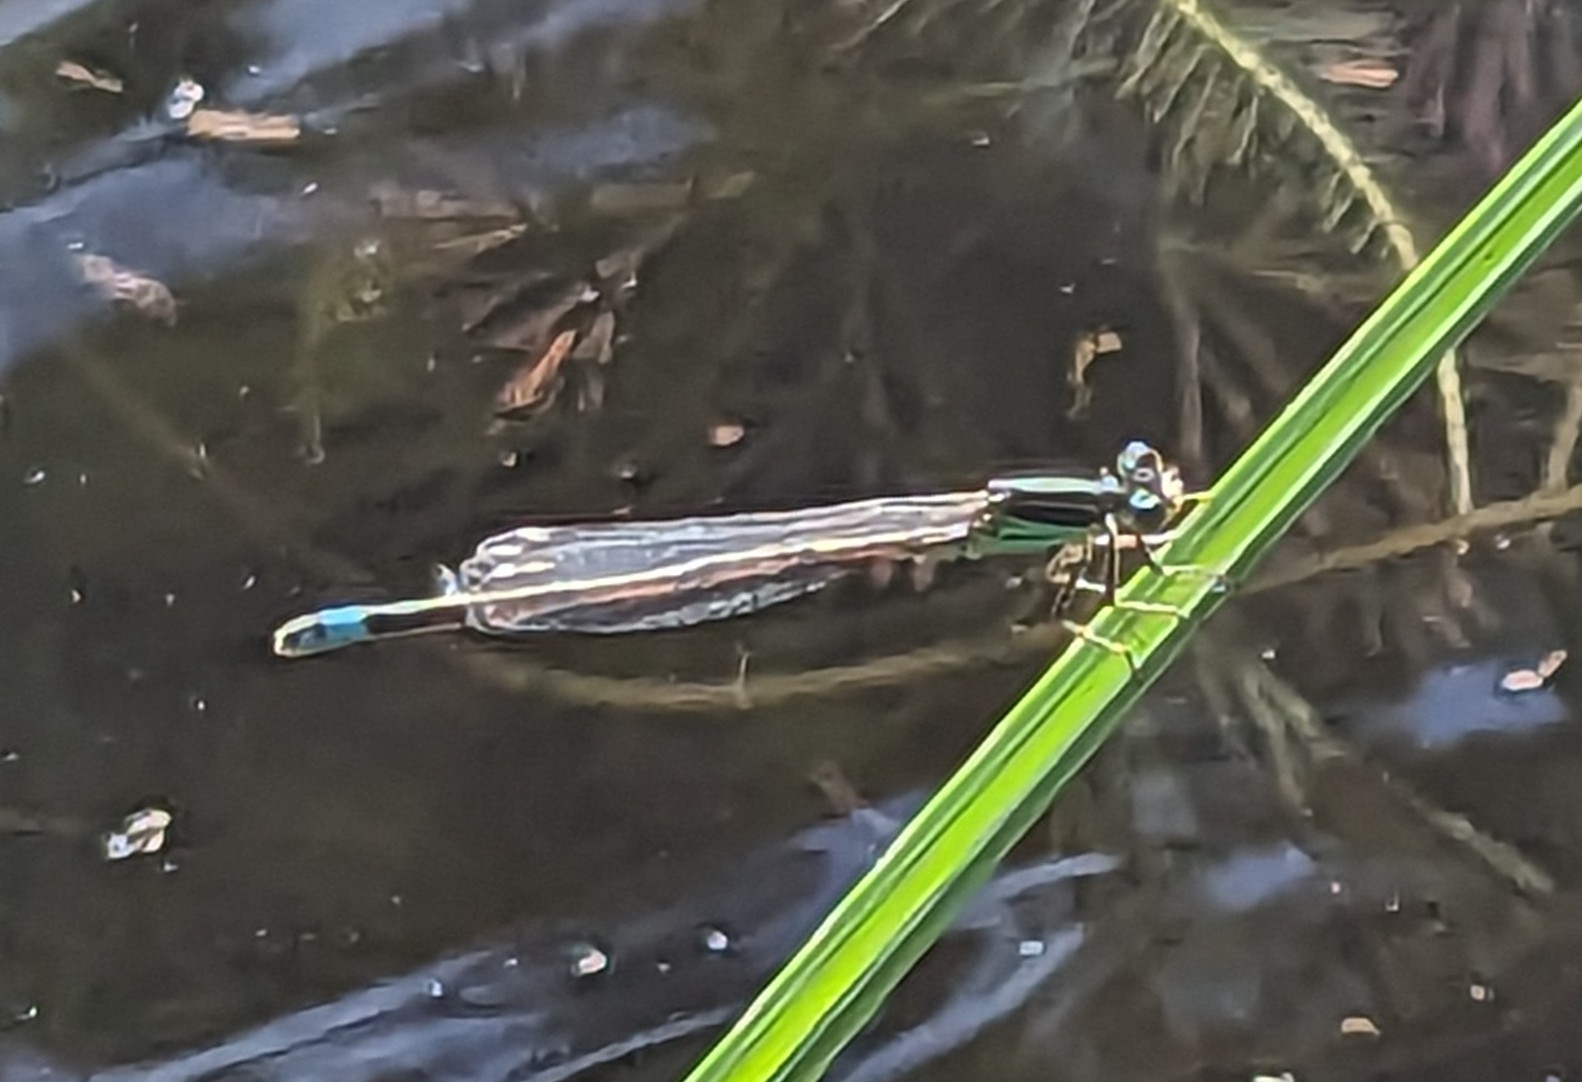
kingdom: Animalia
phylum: Arthropoda
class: Insecta
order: Odonata
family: Coenagrionidae
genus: Ischnura
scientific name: Ischnura ramburii
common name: Rambur's forktail
